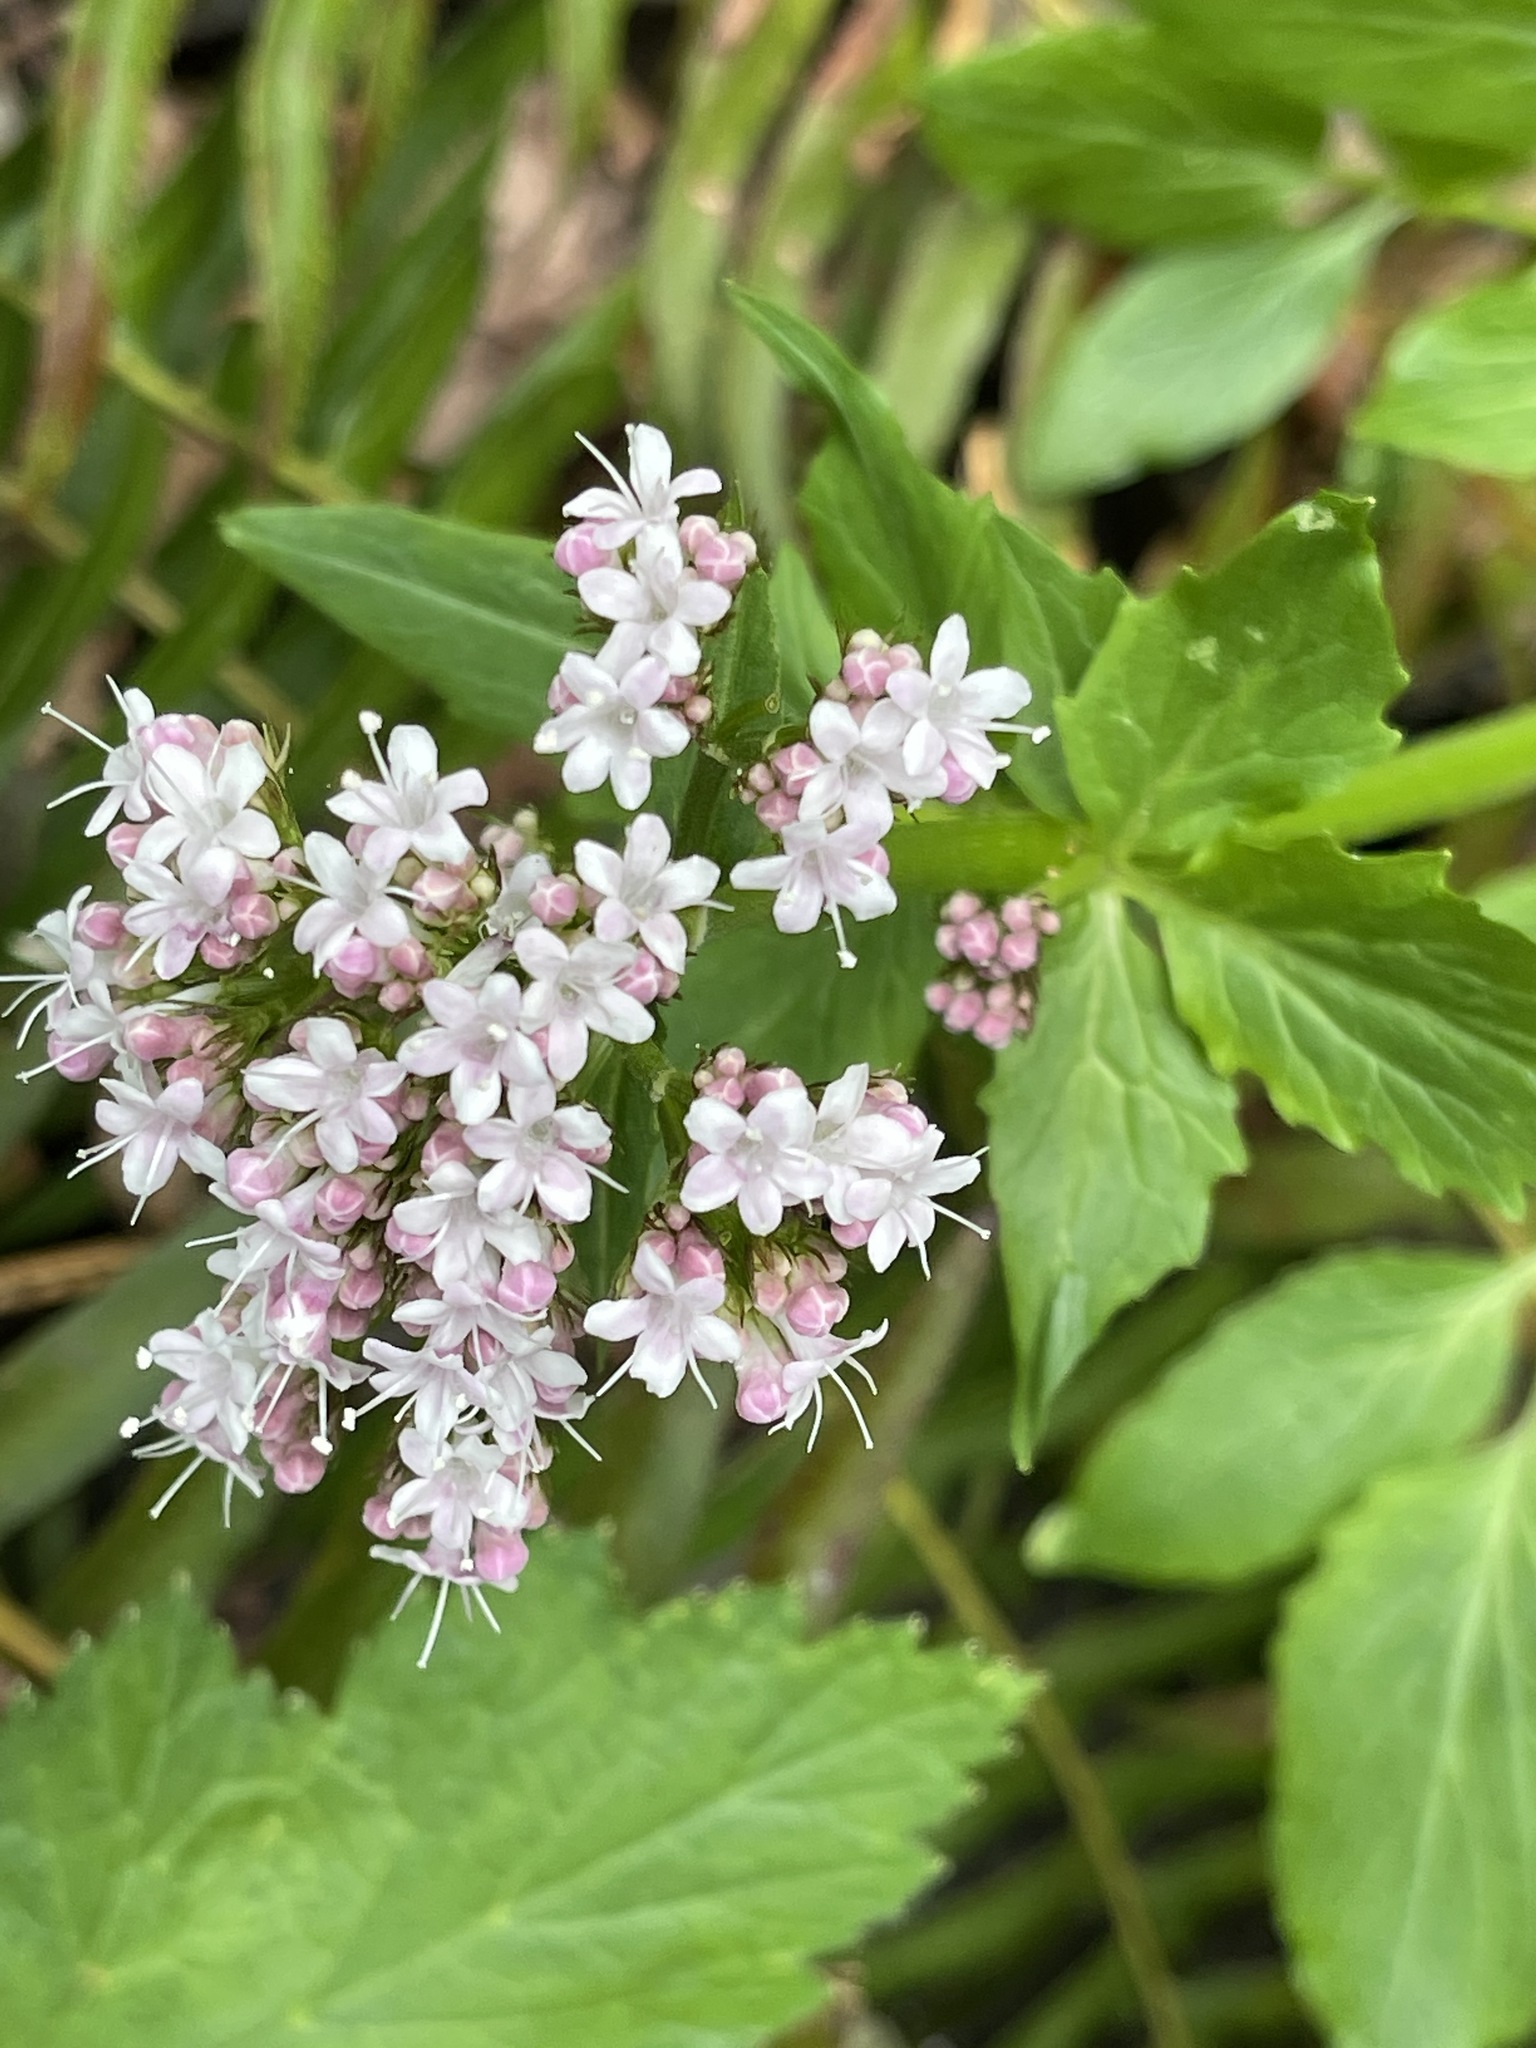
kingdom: Plantae
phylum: Tracheophyta
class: Magnoliopsida
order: Dipsacales
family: Caprifoliaceae
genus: Valeriana
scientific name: Valeriana sitchensis
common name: Pacific valerian
